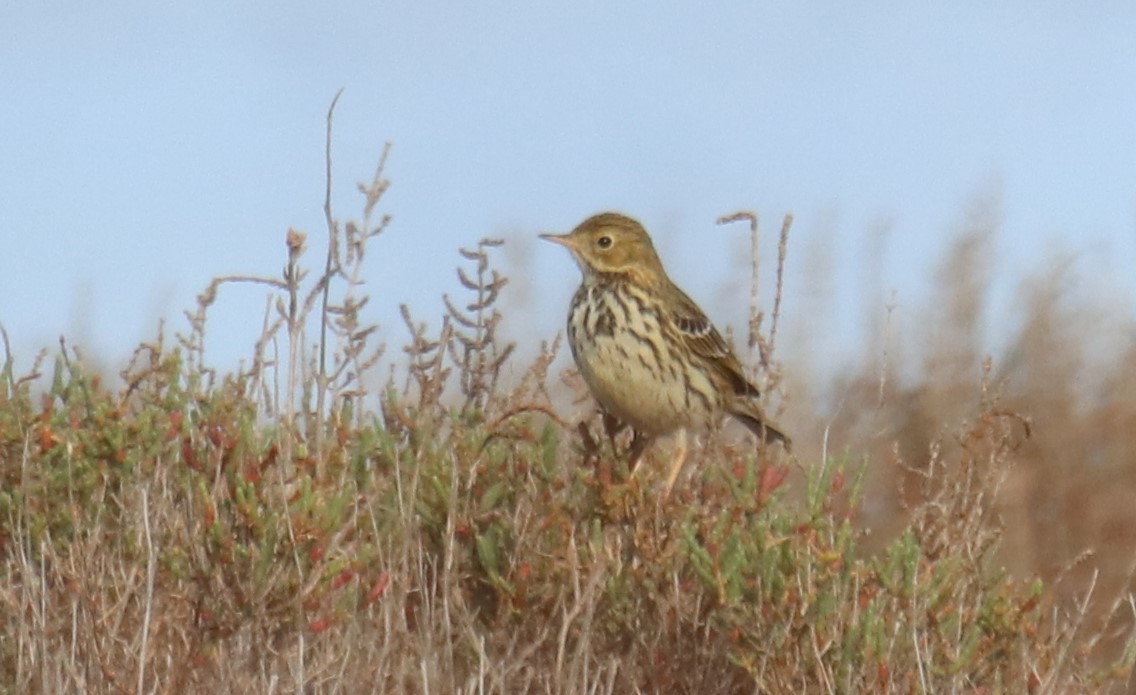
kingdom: Animalia
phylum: Chordata
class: Aves
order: Passeriformes
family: Motacillidae
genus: Anthus
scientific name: Anthus pratensis
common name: Meadow pipit
